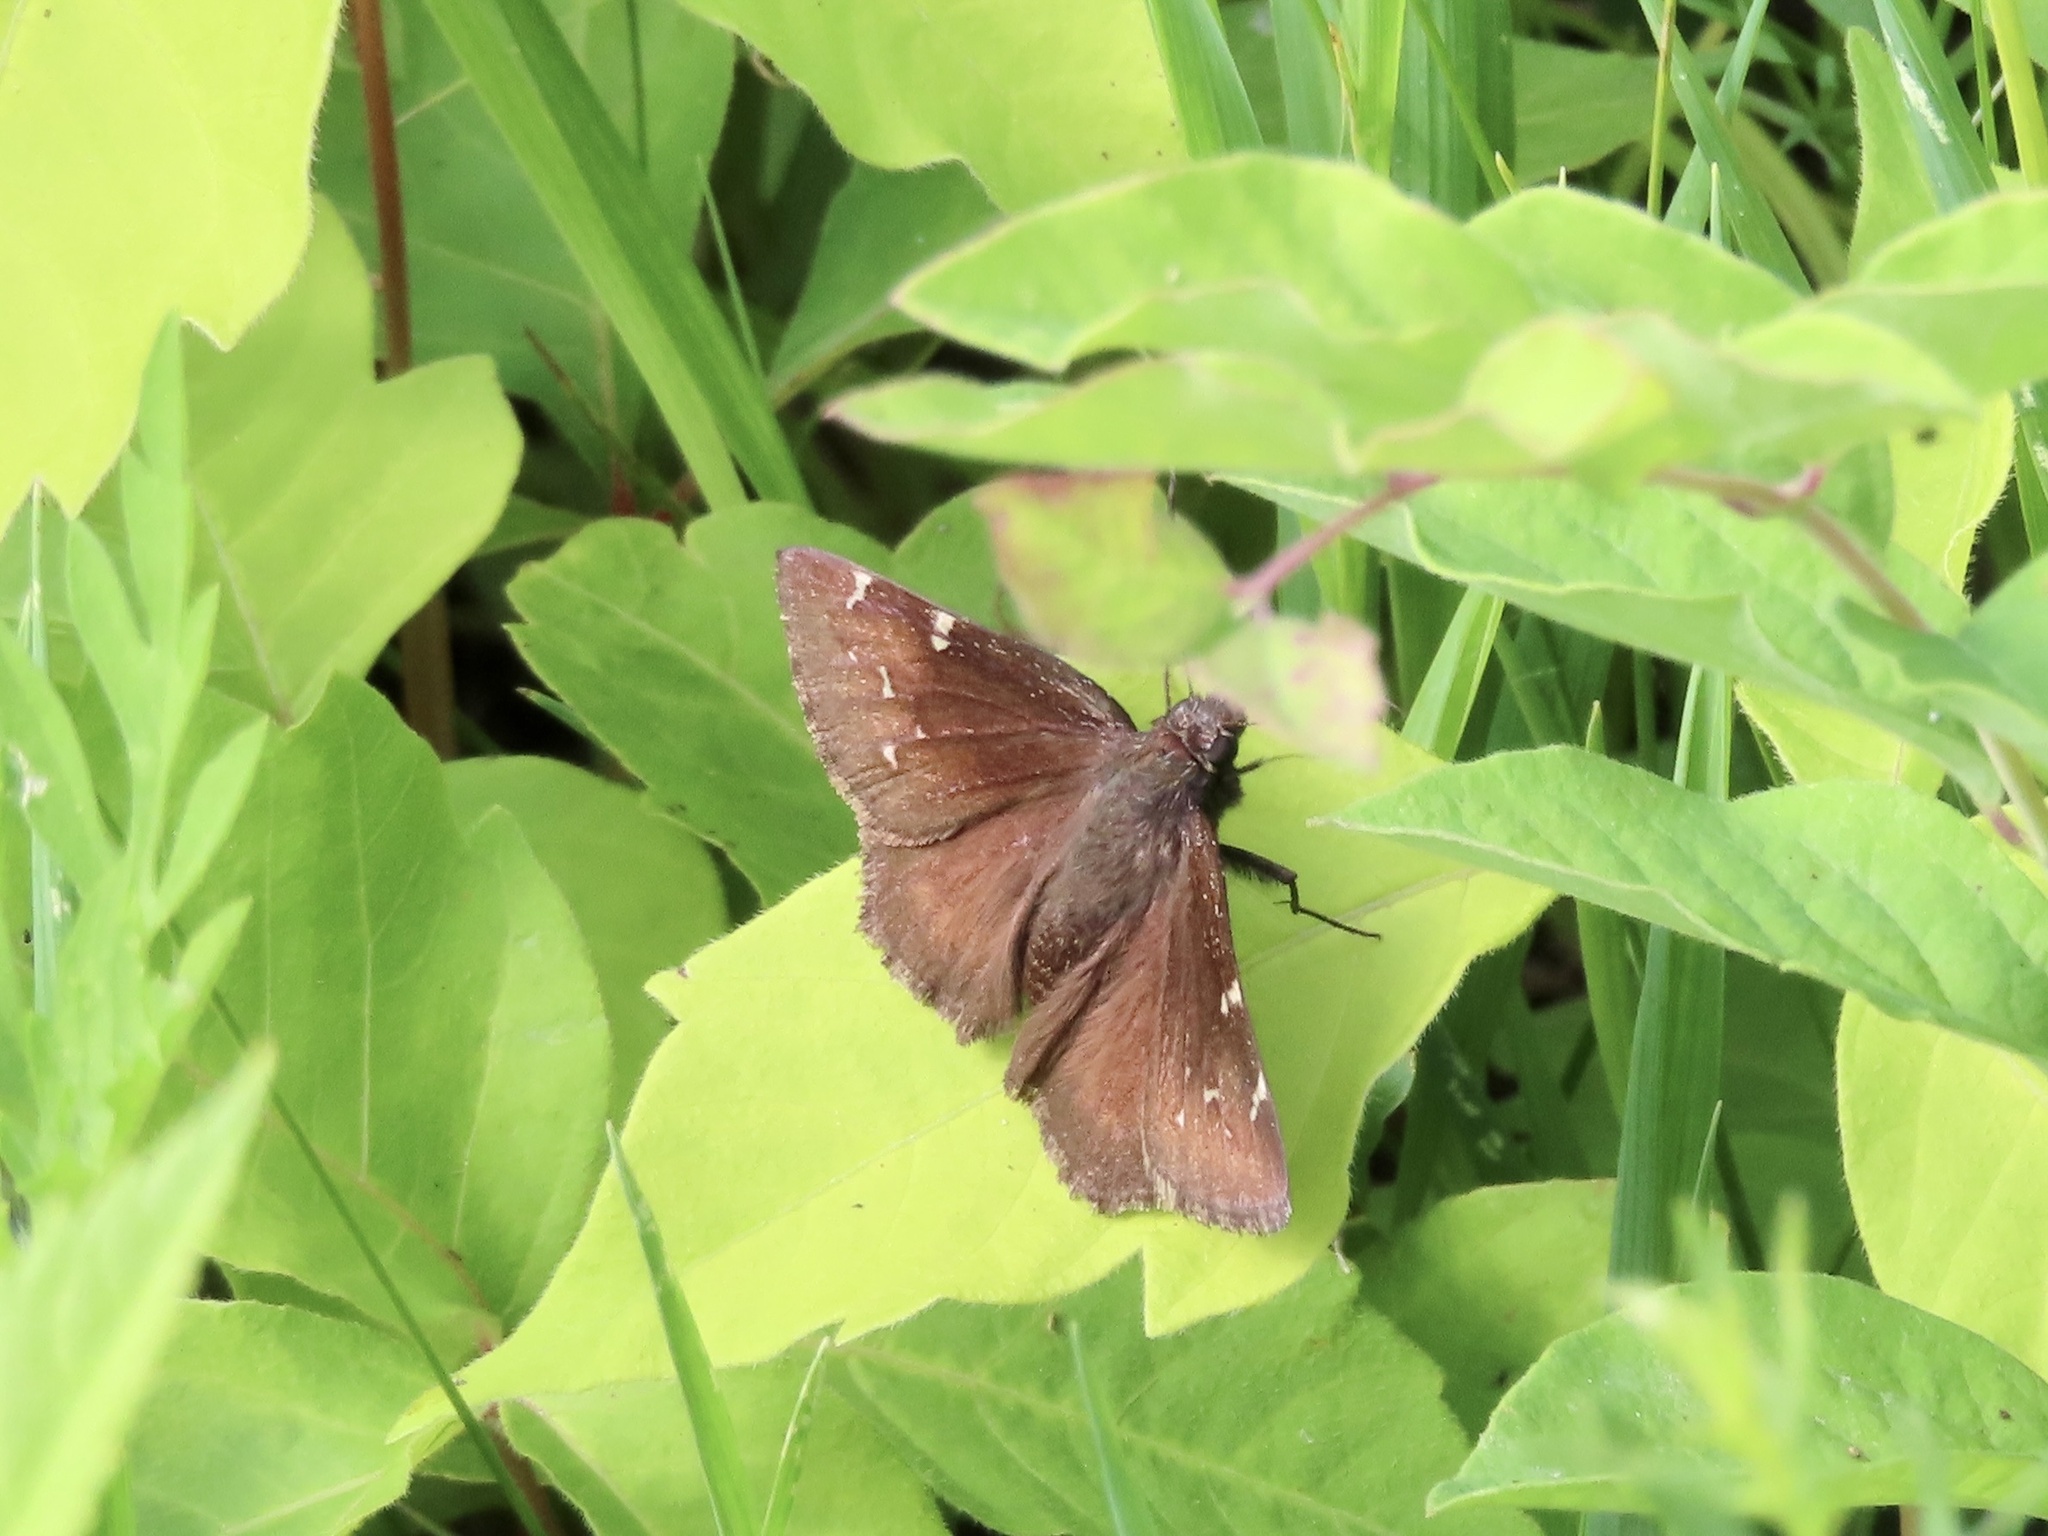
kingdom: Animalia
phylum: Arthropoda
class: Insecta
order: Lepidoptera
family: Hesperiidae
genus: Thorybes
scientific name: Thorybes pylades
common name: Northern cloudywing
